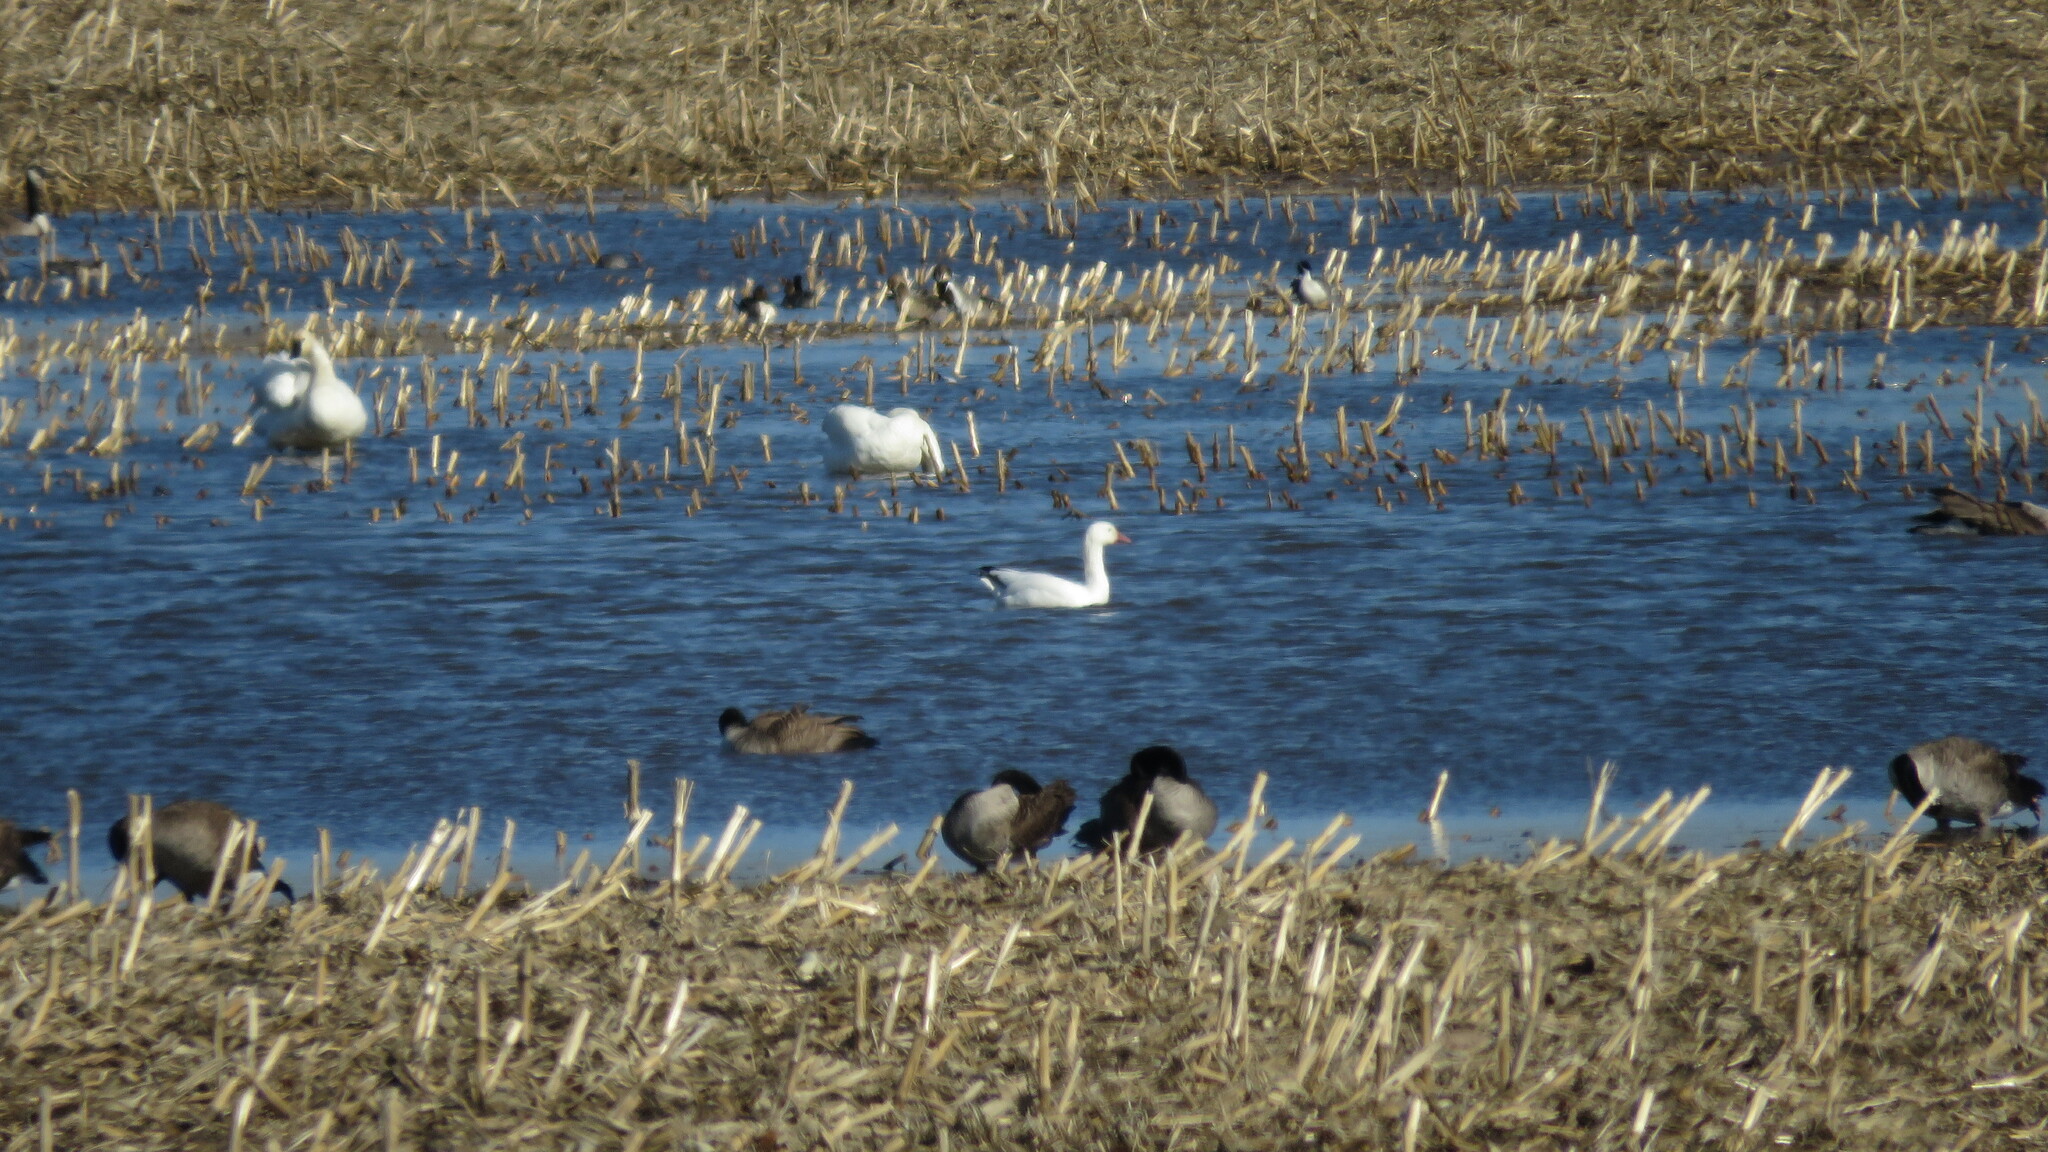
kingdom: Animalia
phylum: Chordata
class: Aves
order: Anseriformes
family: Anatidae
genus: Anser
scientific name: Anser caerulescens
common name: Snow goose
